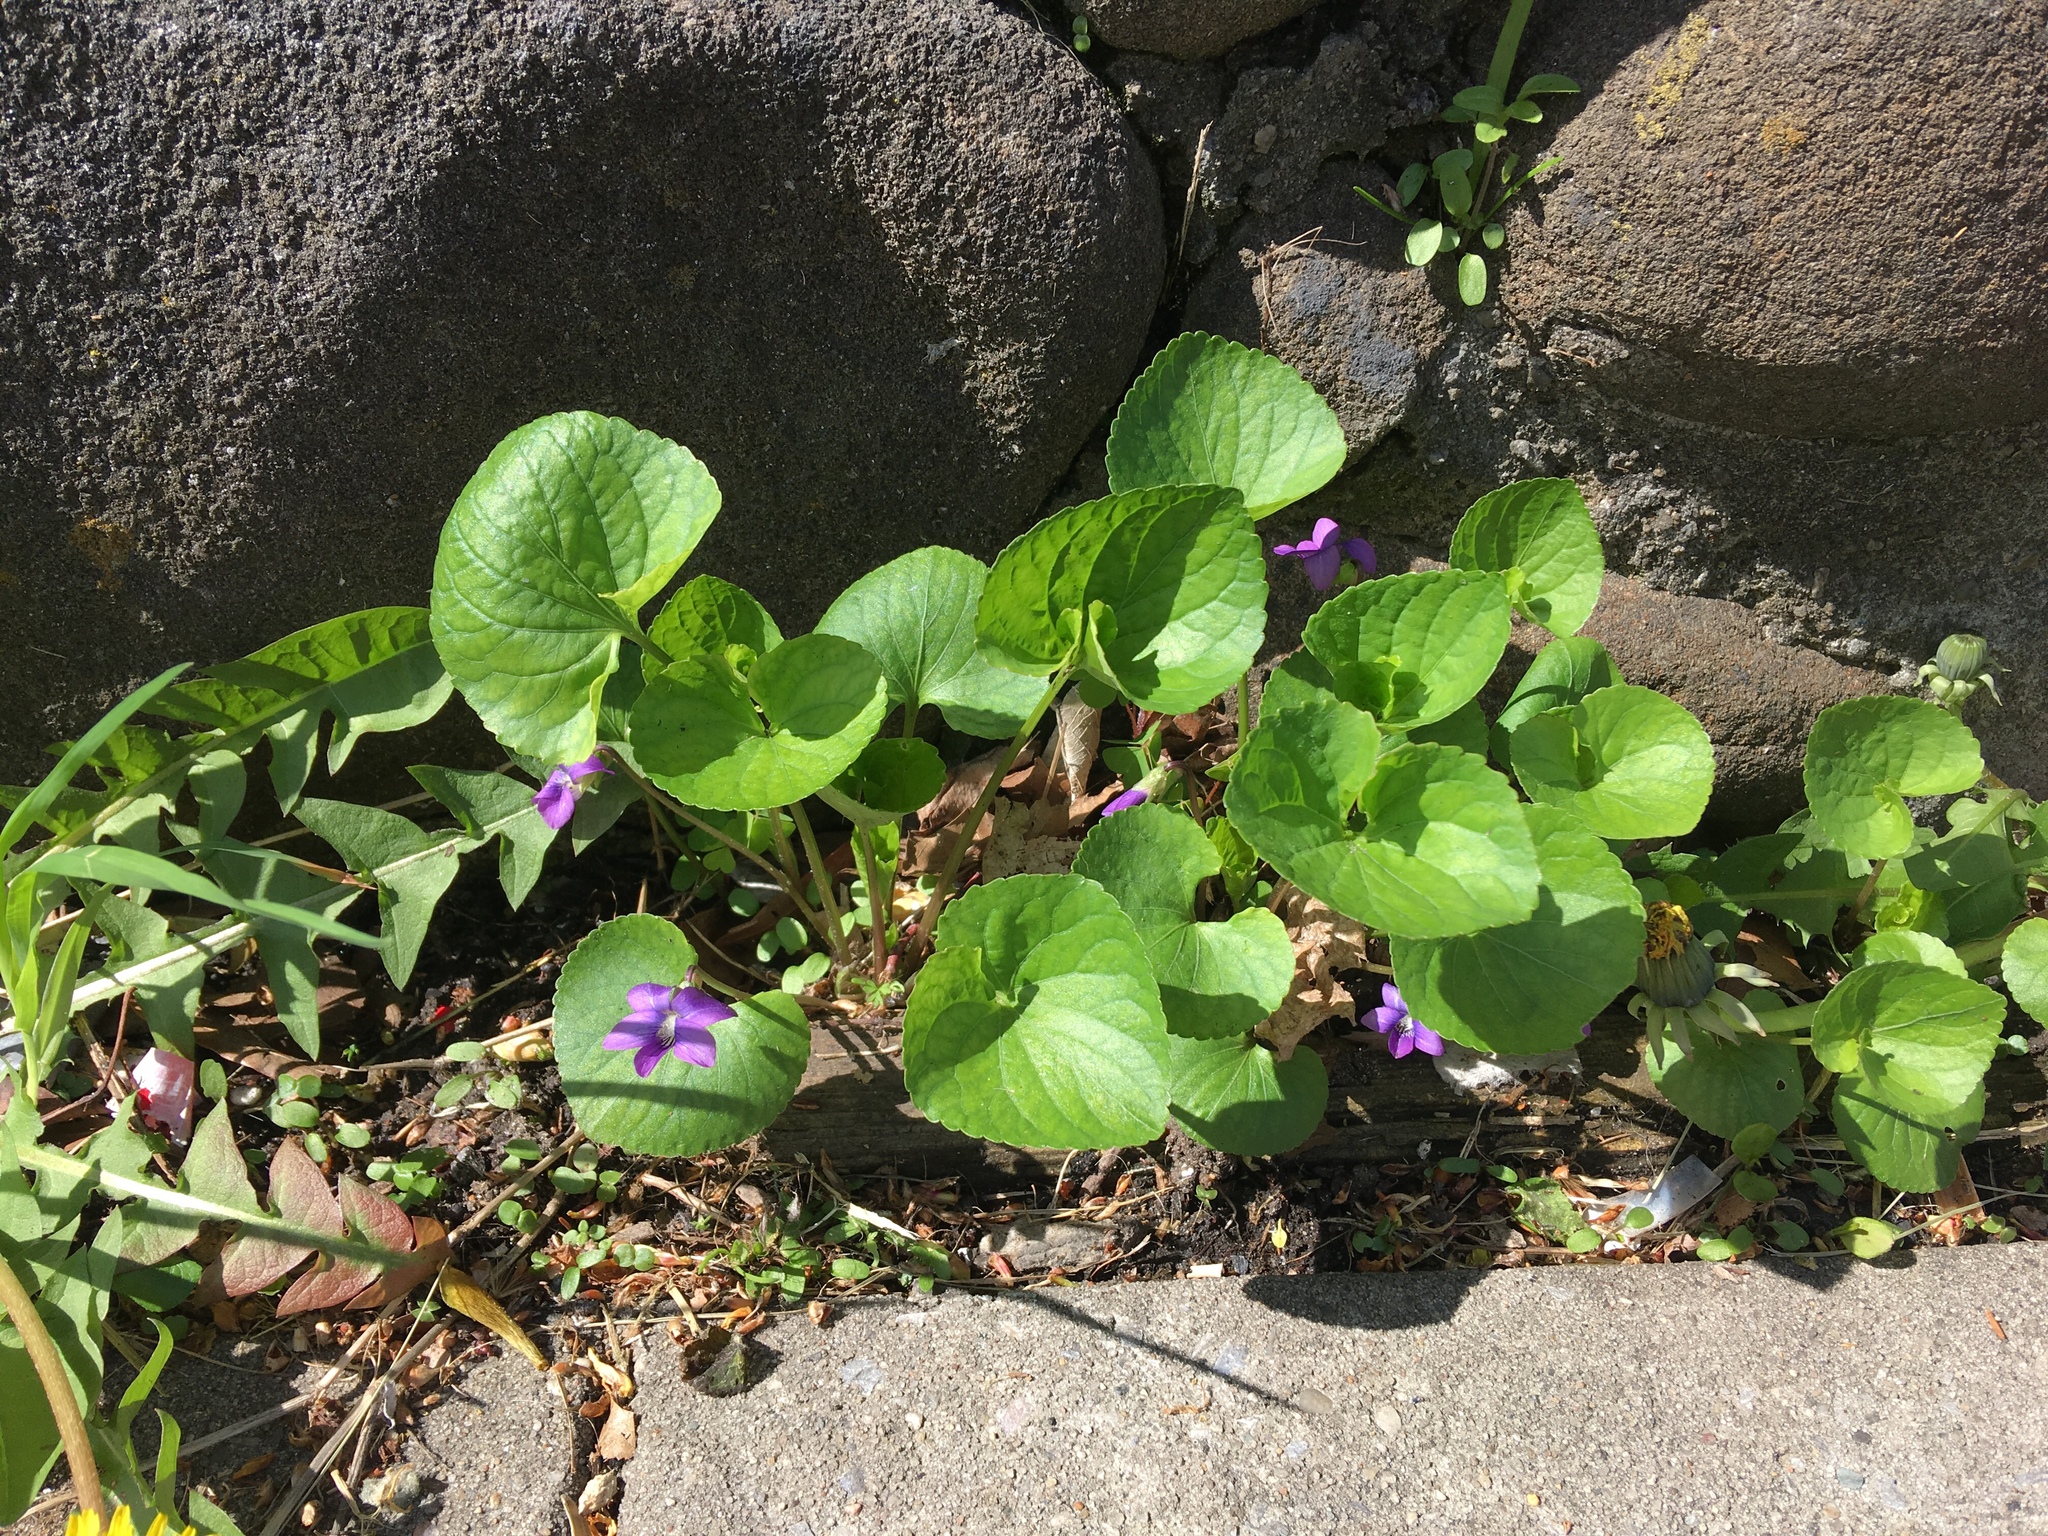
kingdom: Plantae
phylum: Tracheophyta
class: Magnoliopsida
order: Malpighiales
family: Violaceae
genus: Viola
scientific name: Viola sororia
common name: Dooryard violet
